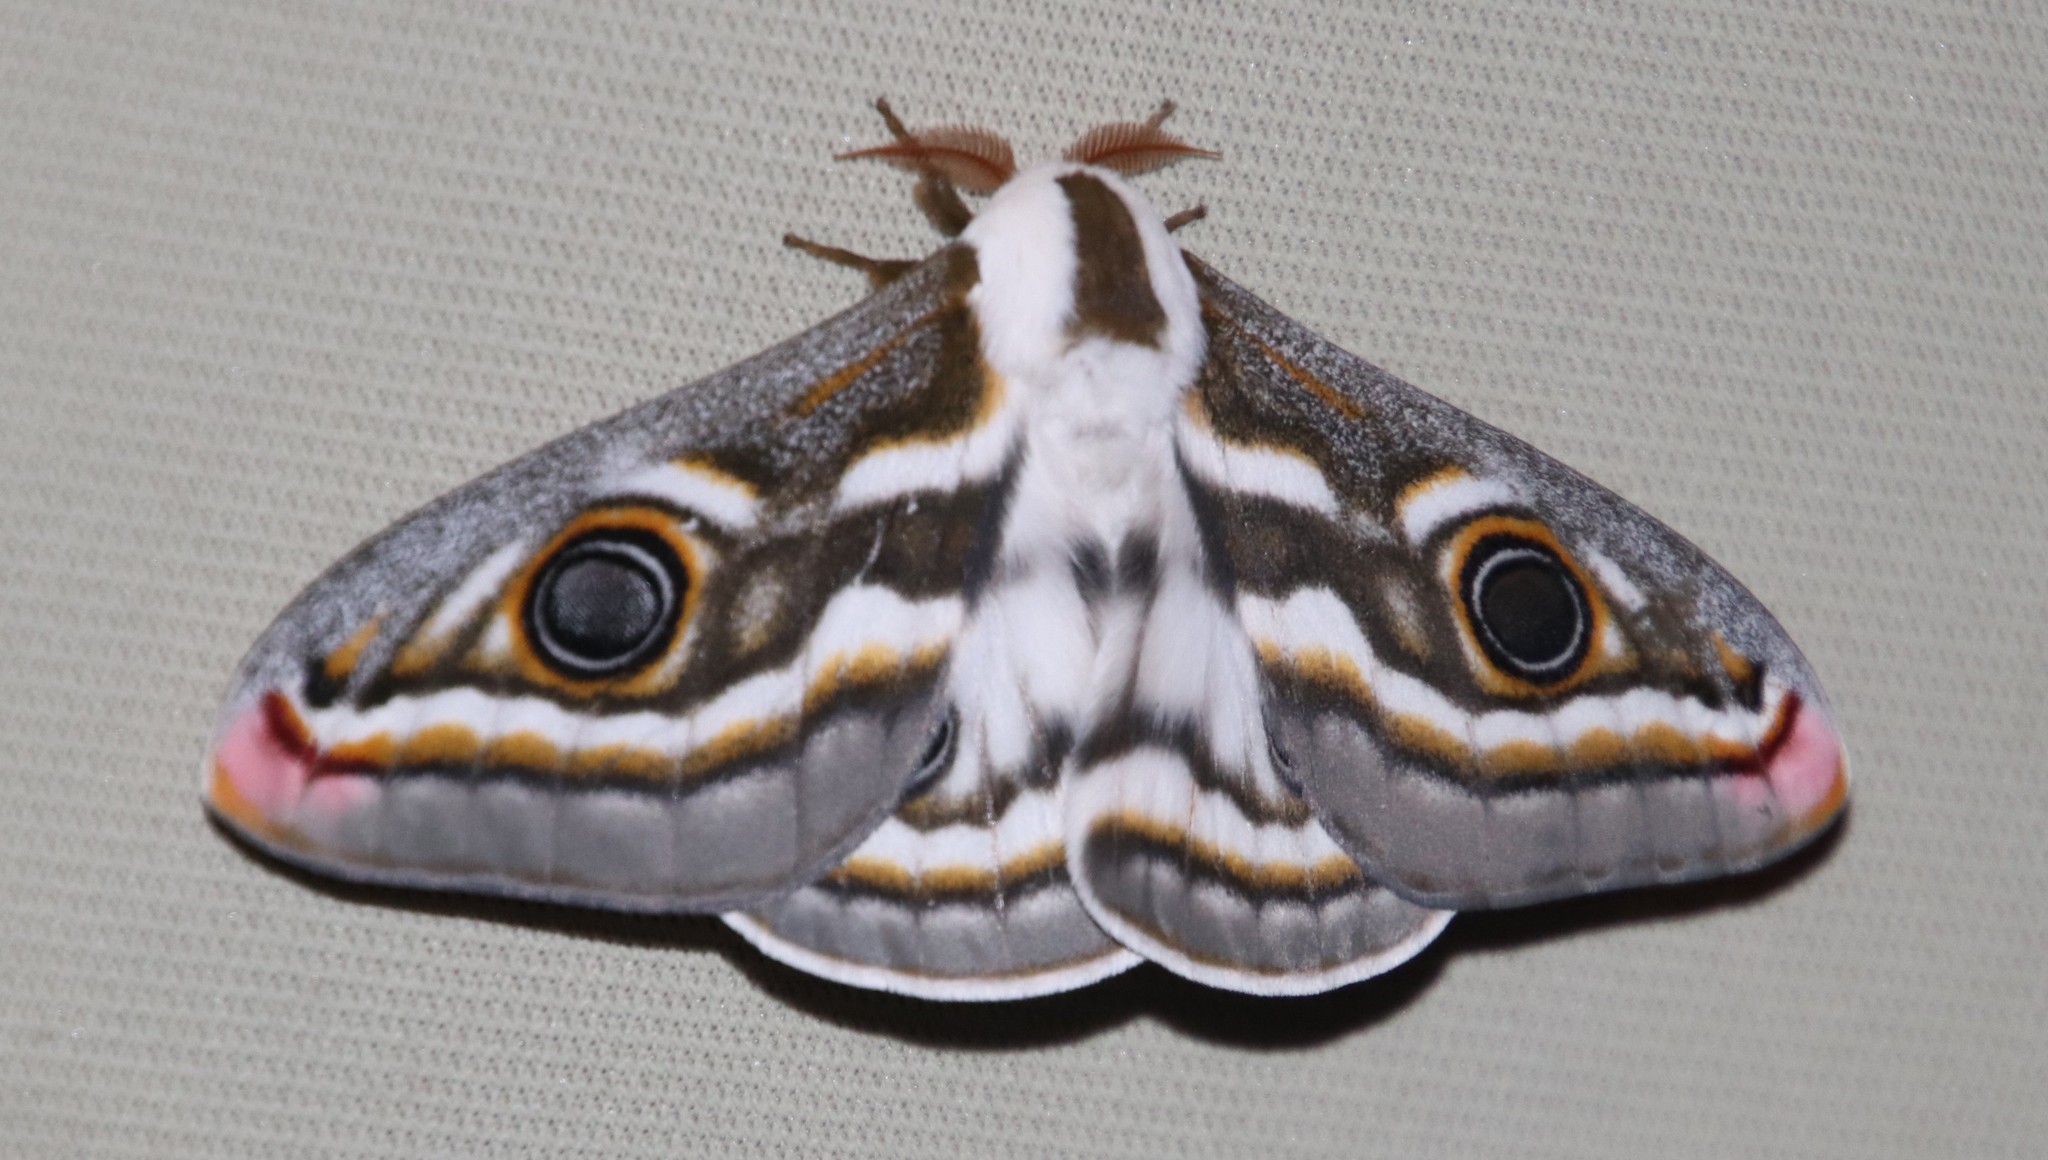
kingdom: Animalia
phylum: Arthropoda
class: Insecta
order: Lepidoptera
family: Saturniidae
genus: Heniocha
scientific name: Heniocha apollonia
